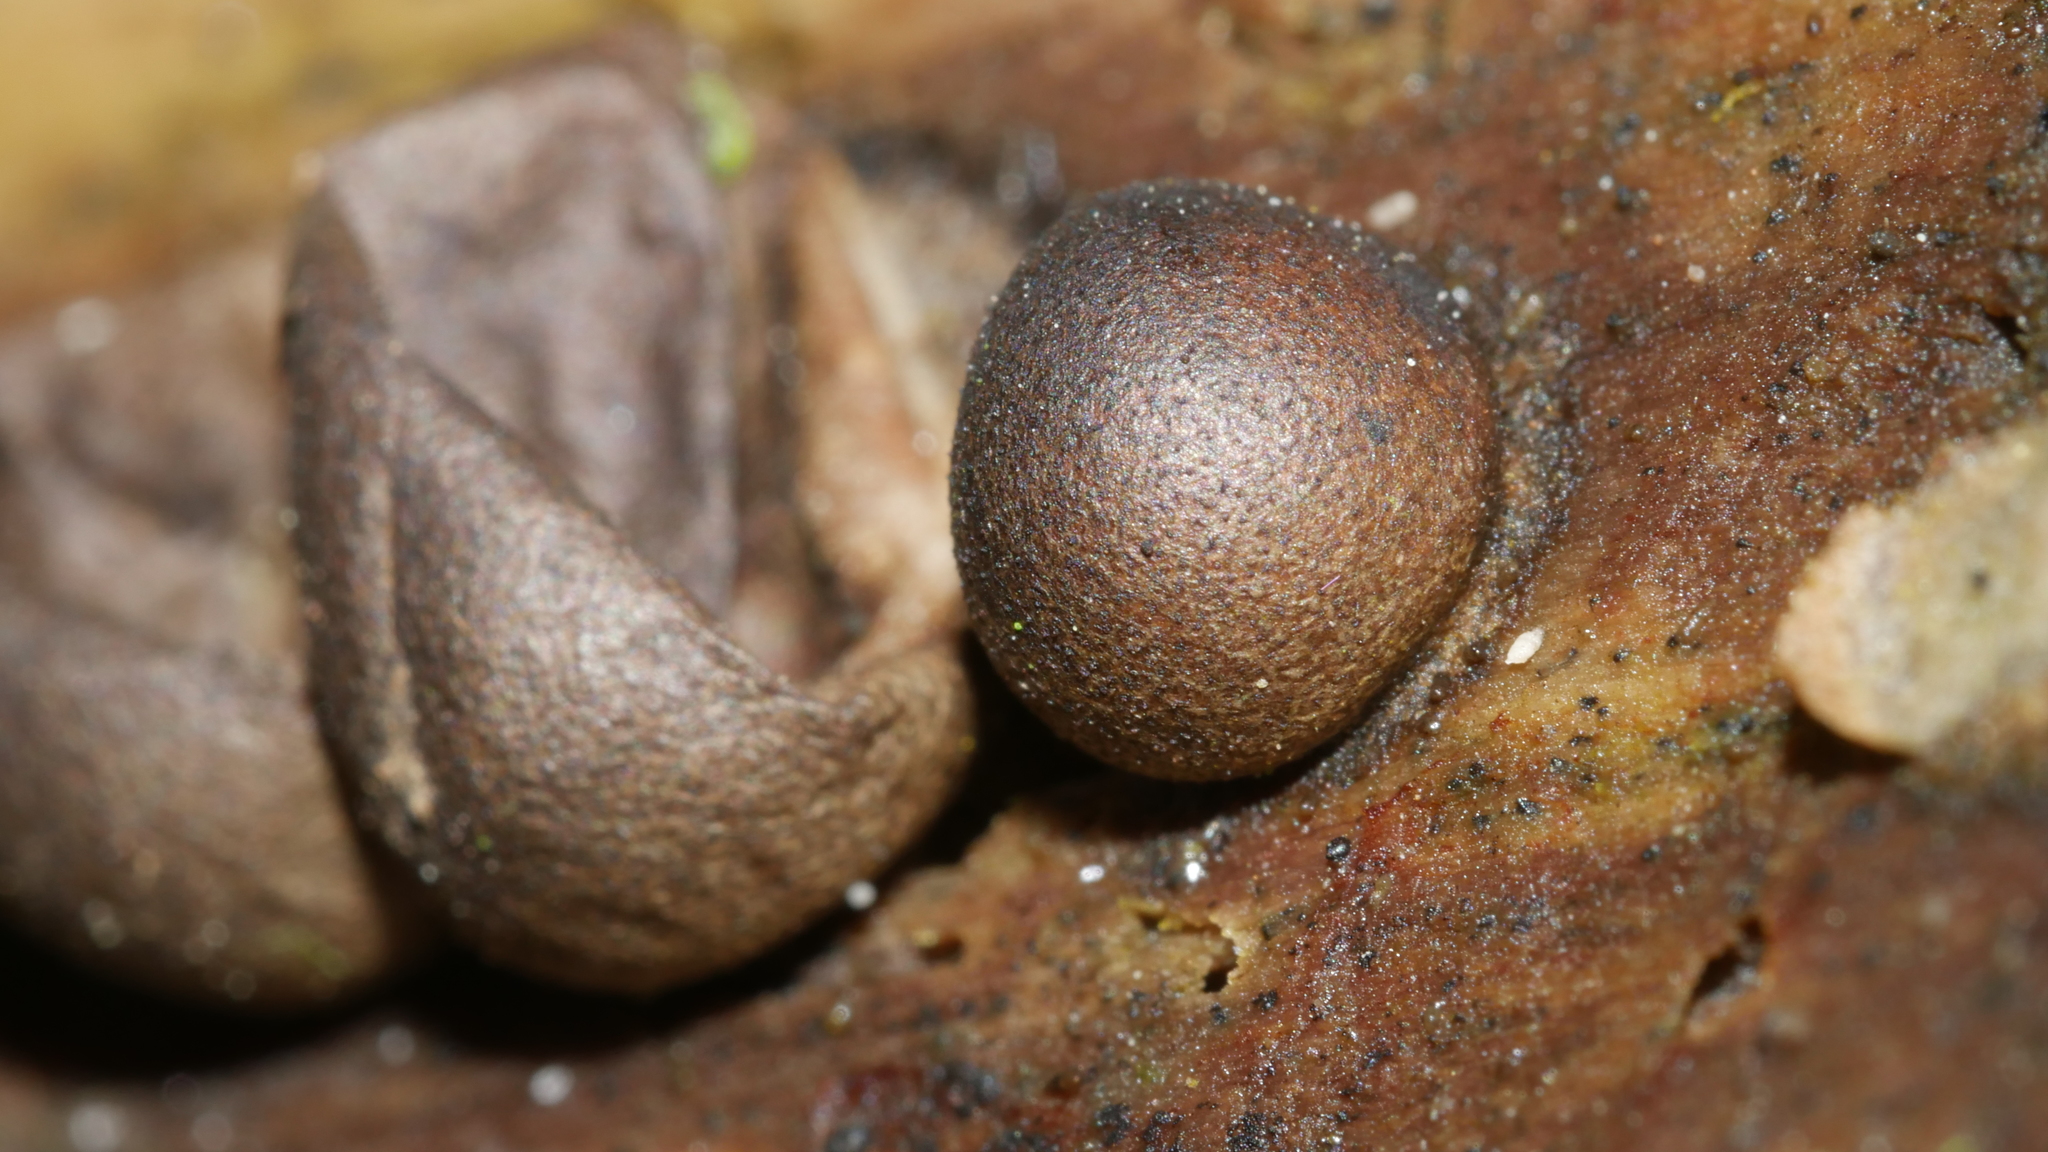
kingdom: Protozoa
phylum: Mycetozoa
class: Myxomycetes
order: Cribrariales
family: Tubiferaceae
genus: Lycogala
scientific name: Lycogala epidendrum
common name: Wolf's milk
